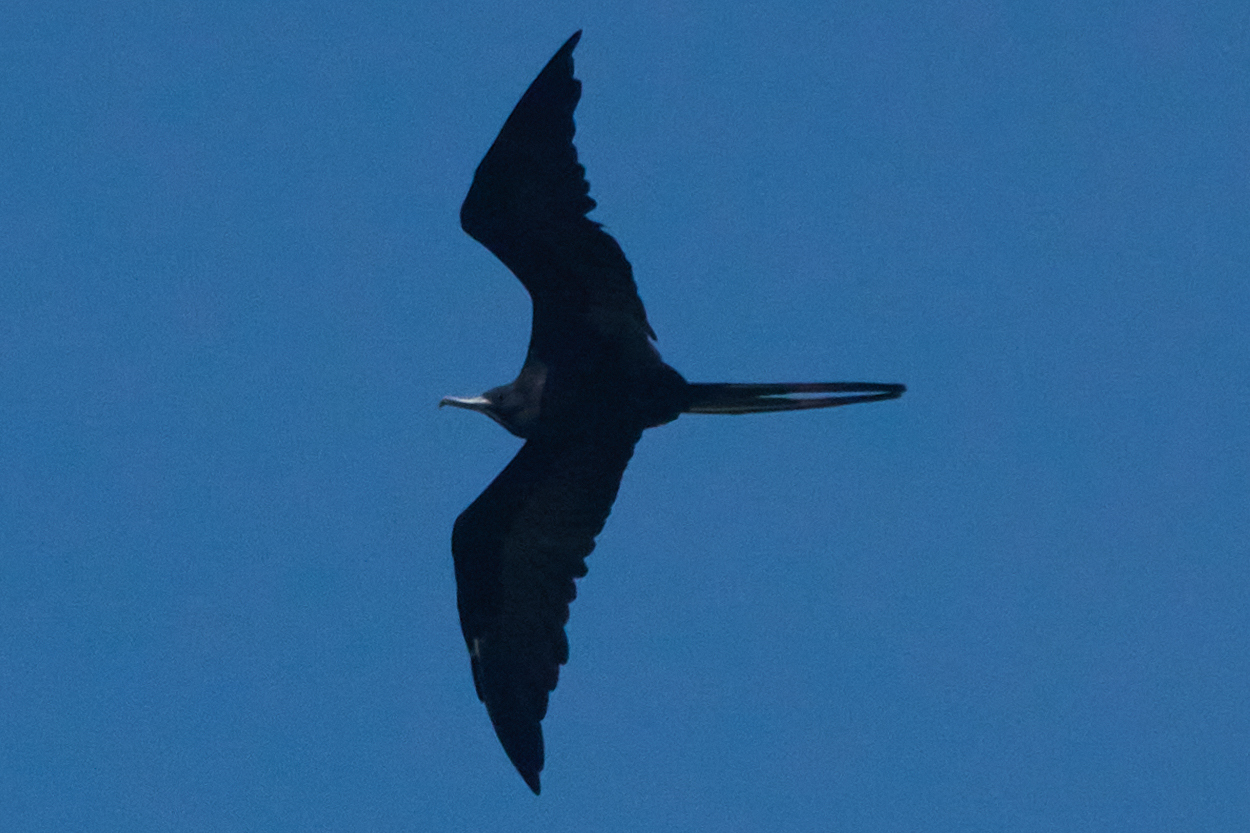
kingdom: Animalia
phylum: Chordata
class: Aves
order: Suliformes
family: Fregatidae
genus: Fregata
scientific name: Fregata magnificens
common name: Magnificent frigatebird
